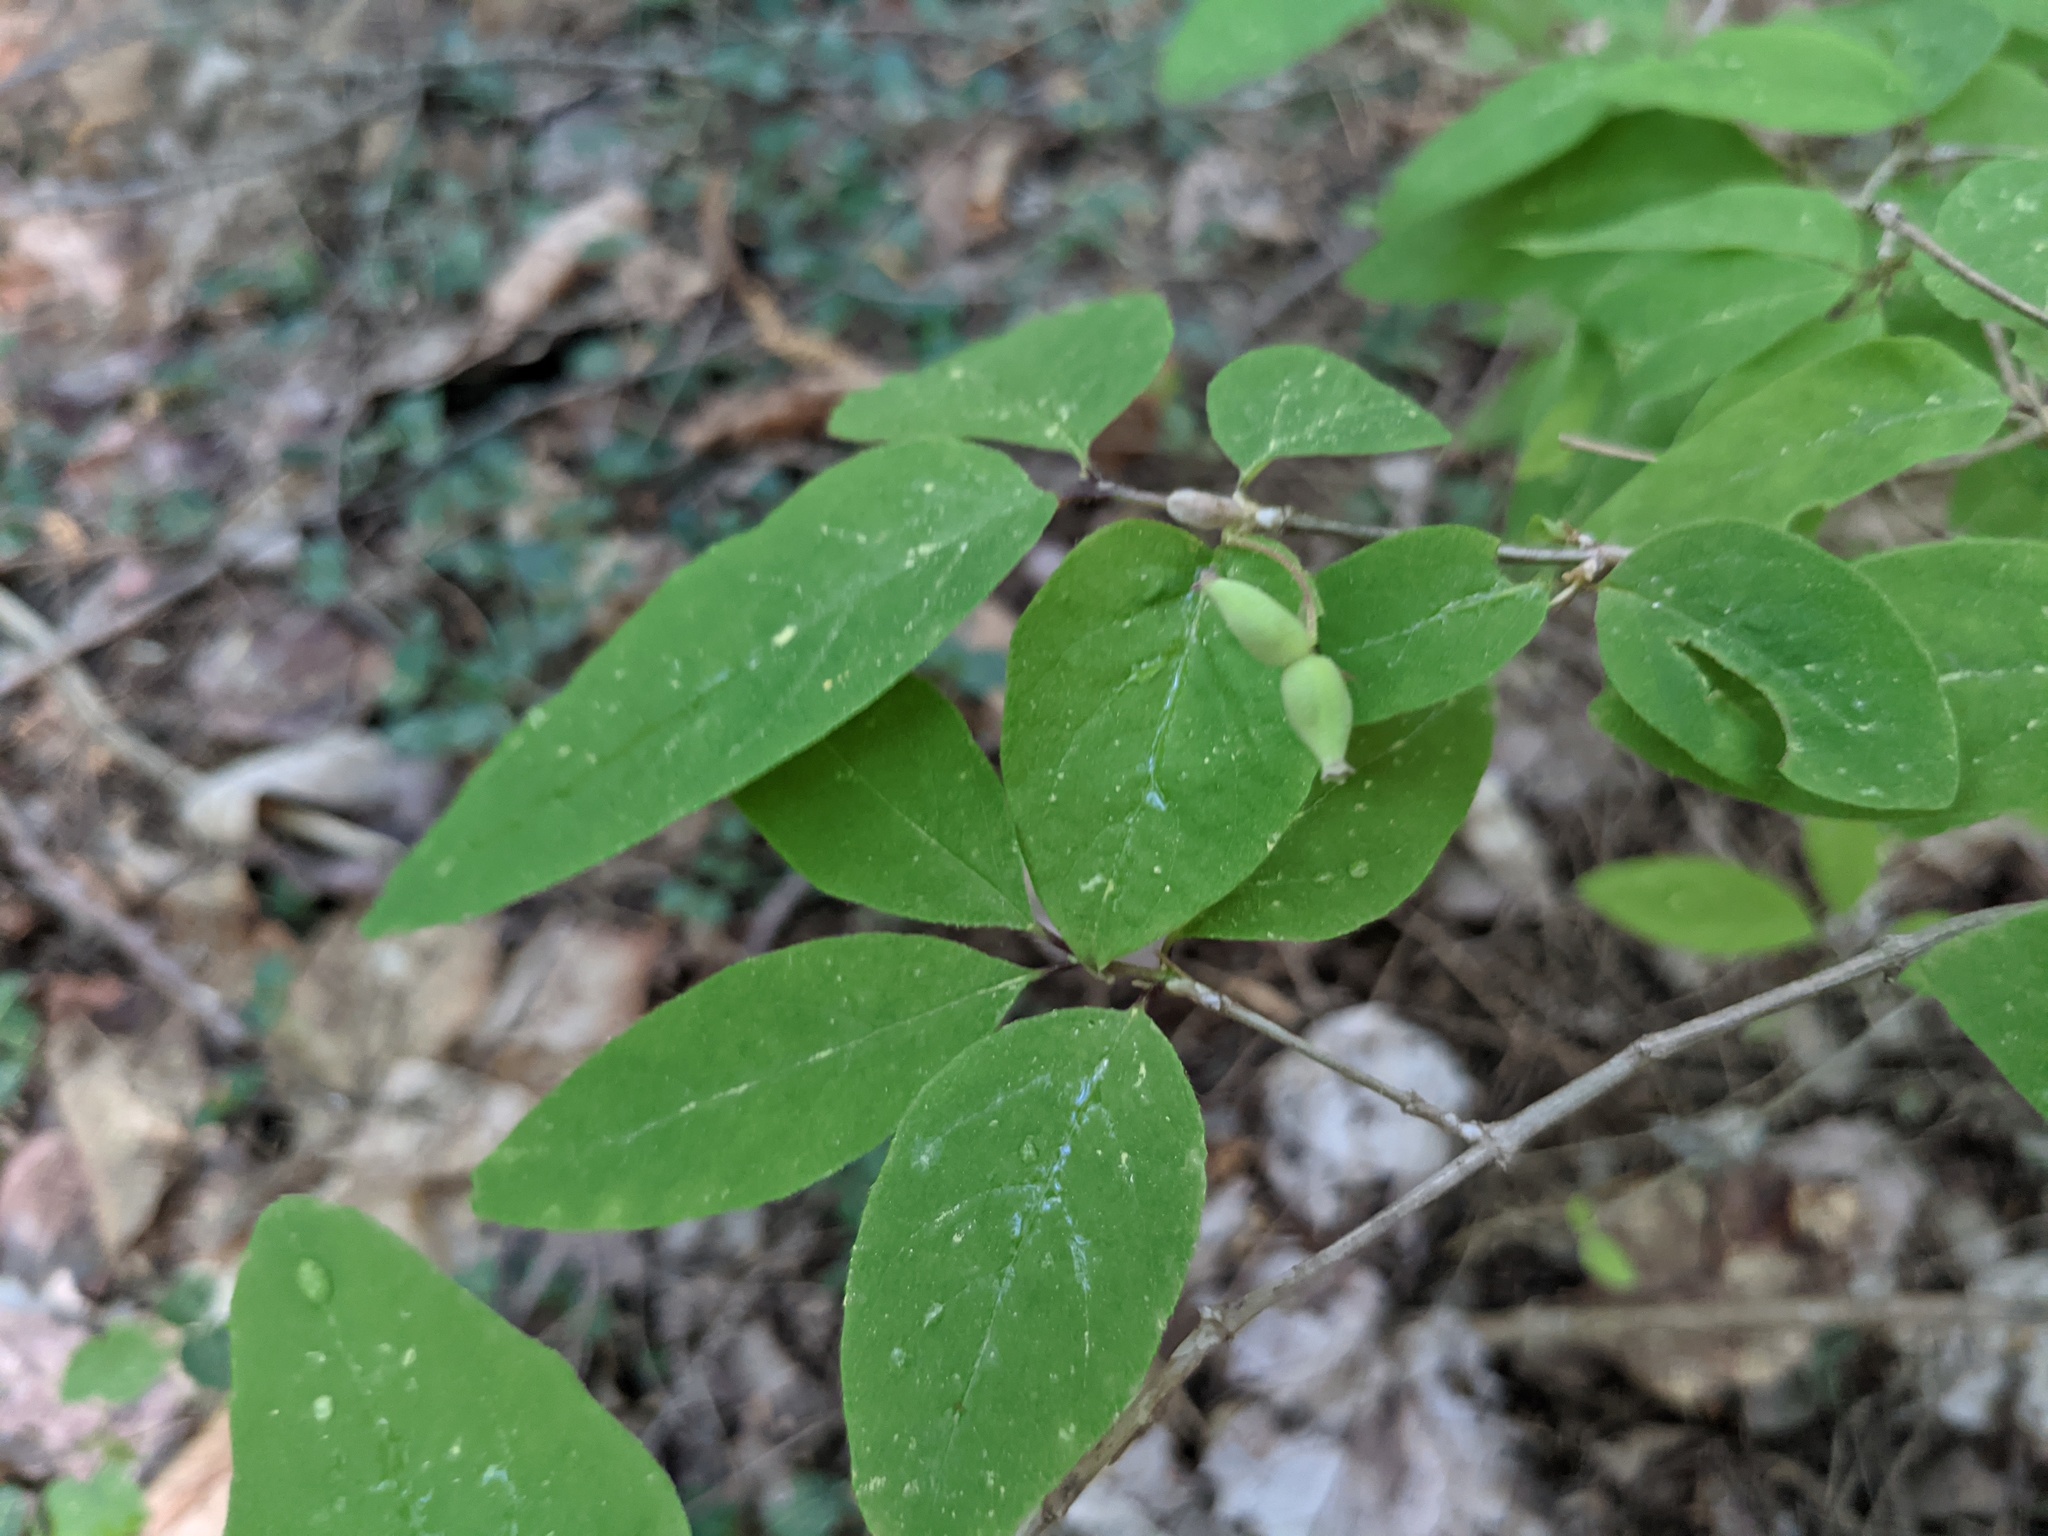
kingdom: Plantae
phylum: Tracheophyta
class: Magnoliopsida
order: Dipsacales
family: Caprifoliaceae
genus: Lonicera
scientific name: Lonicera canadensis
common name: American fly-honeysuckle
